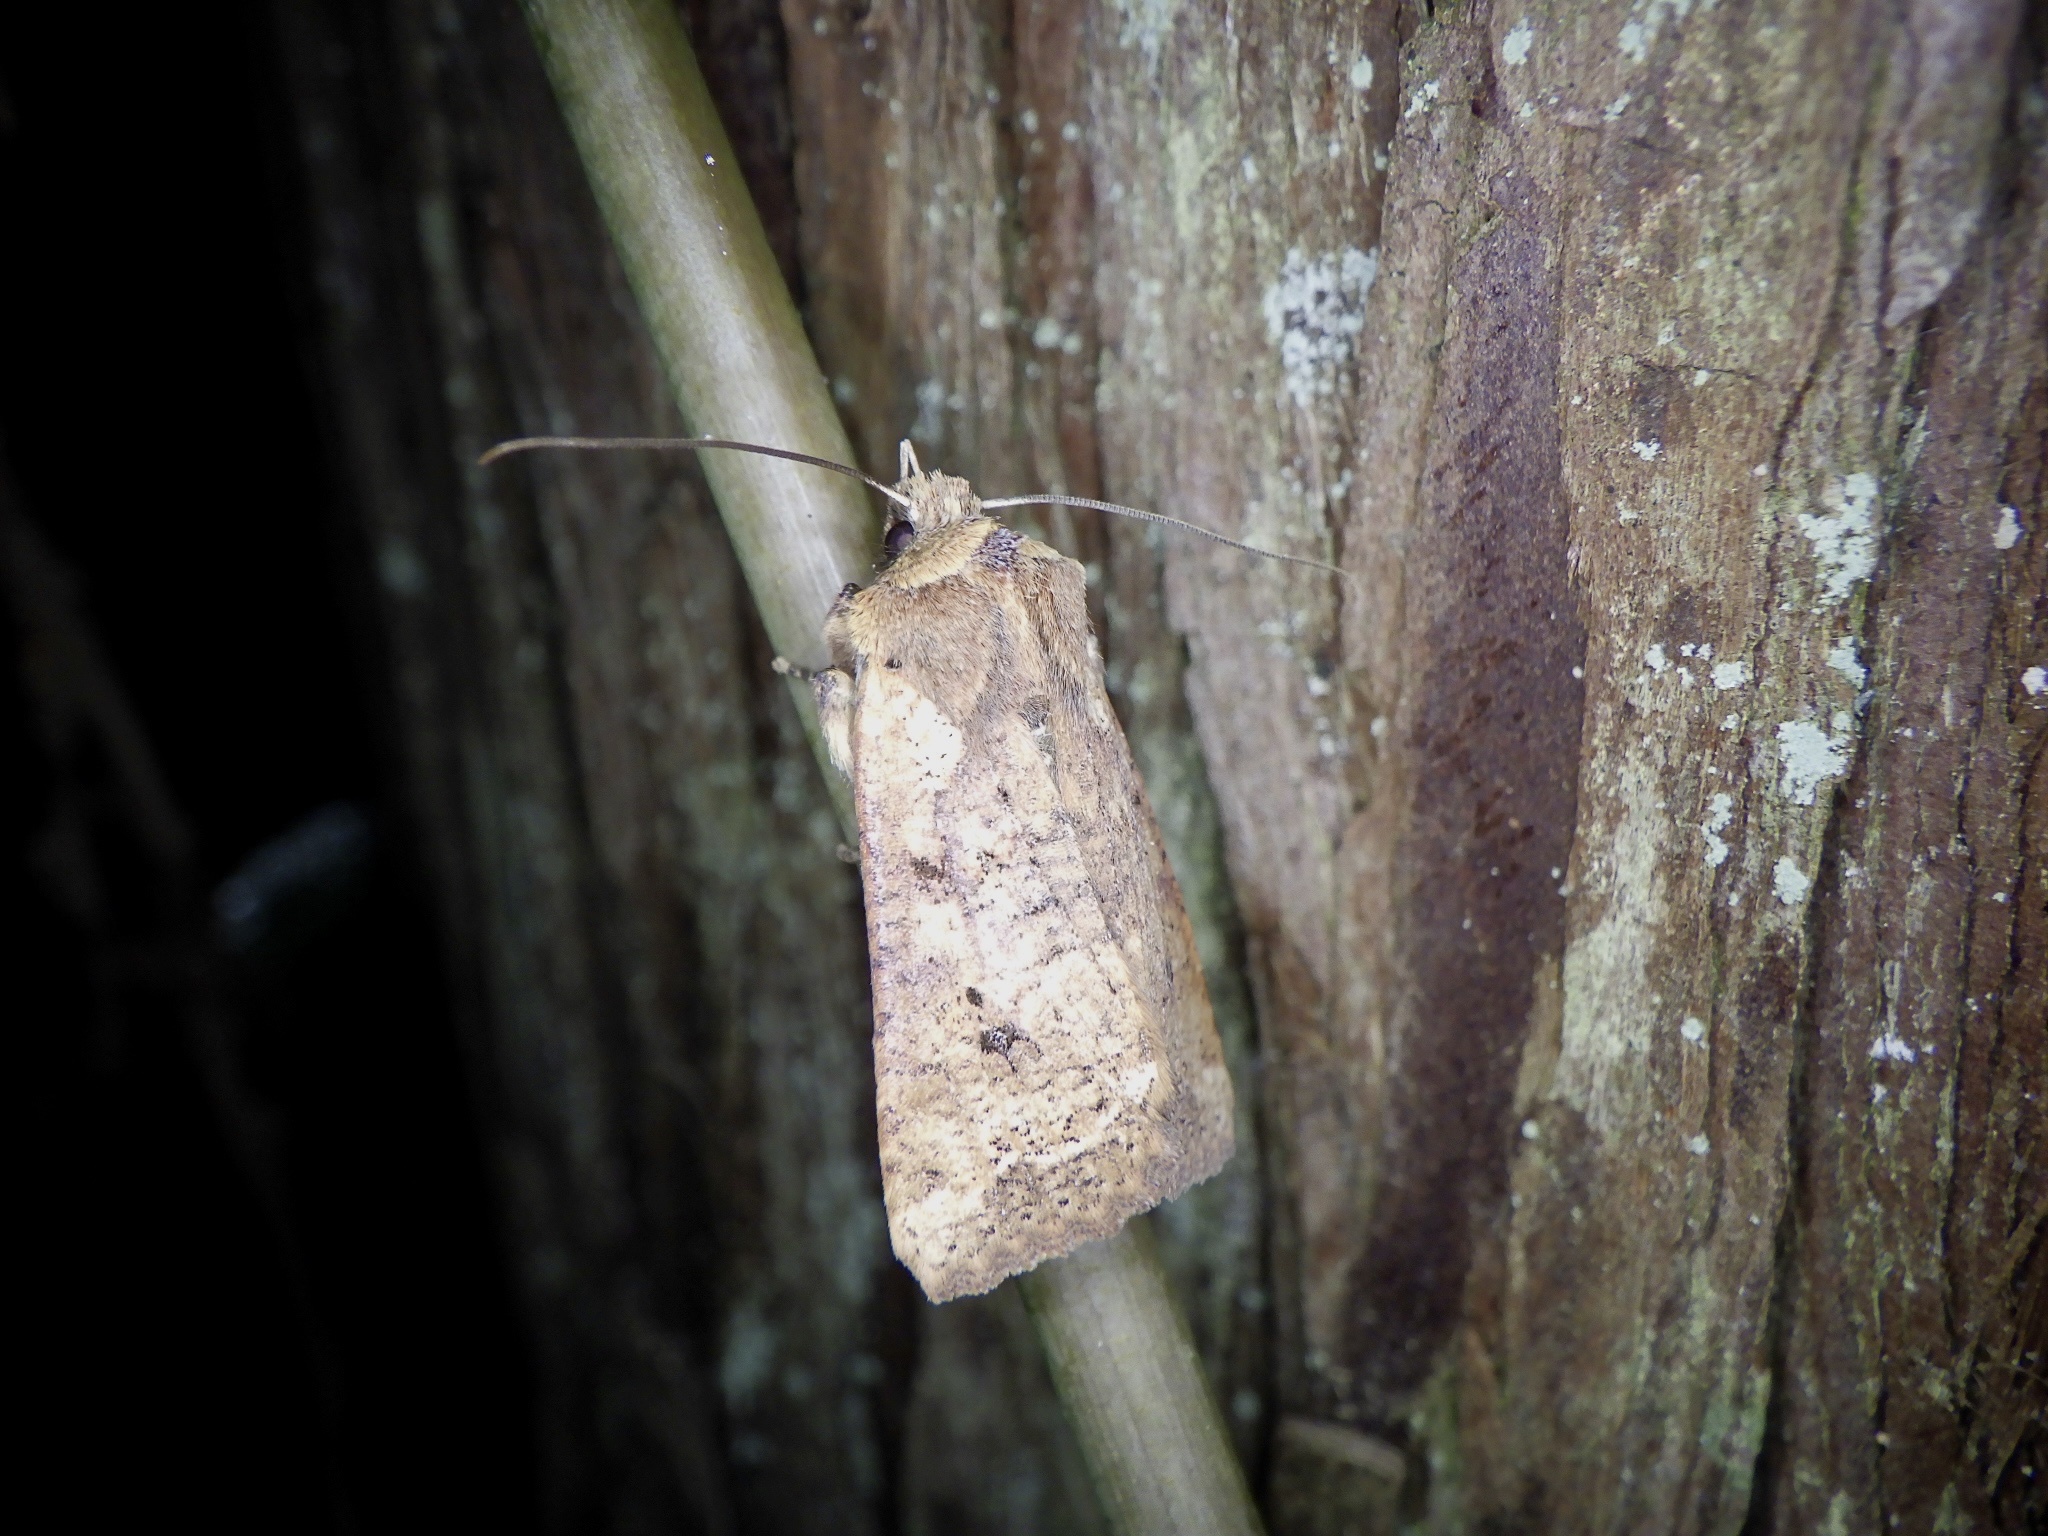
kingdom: Animalia
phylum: Arthropoda
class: Insecta
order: Lepidoptera
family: Noctuidae
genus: Rhynchaglaea
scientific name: Rhynchaglaea fuscipennis
